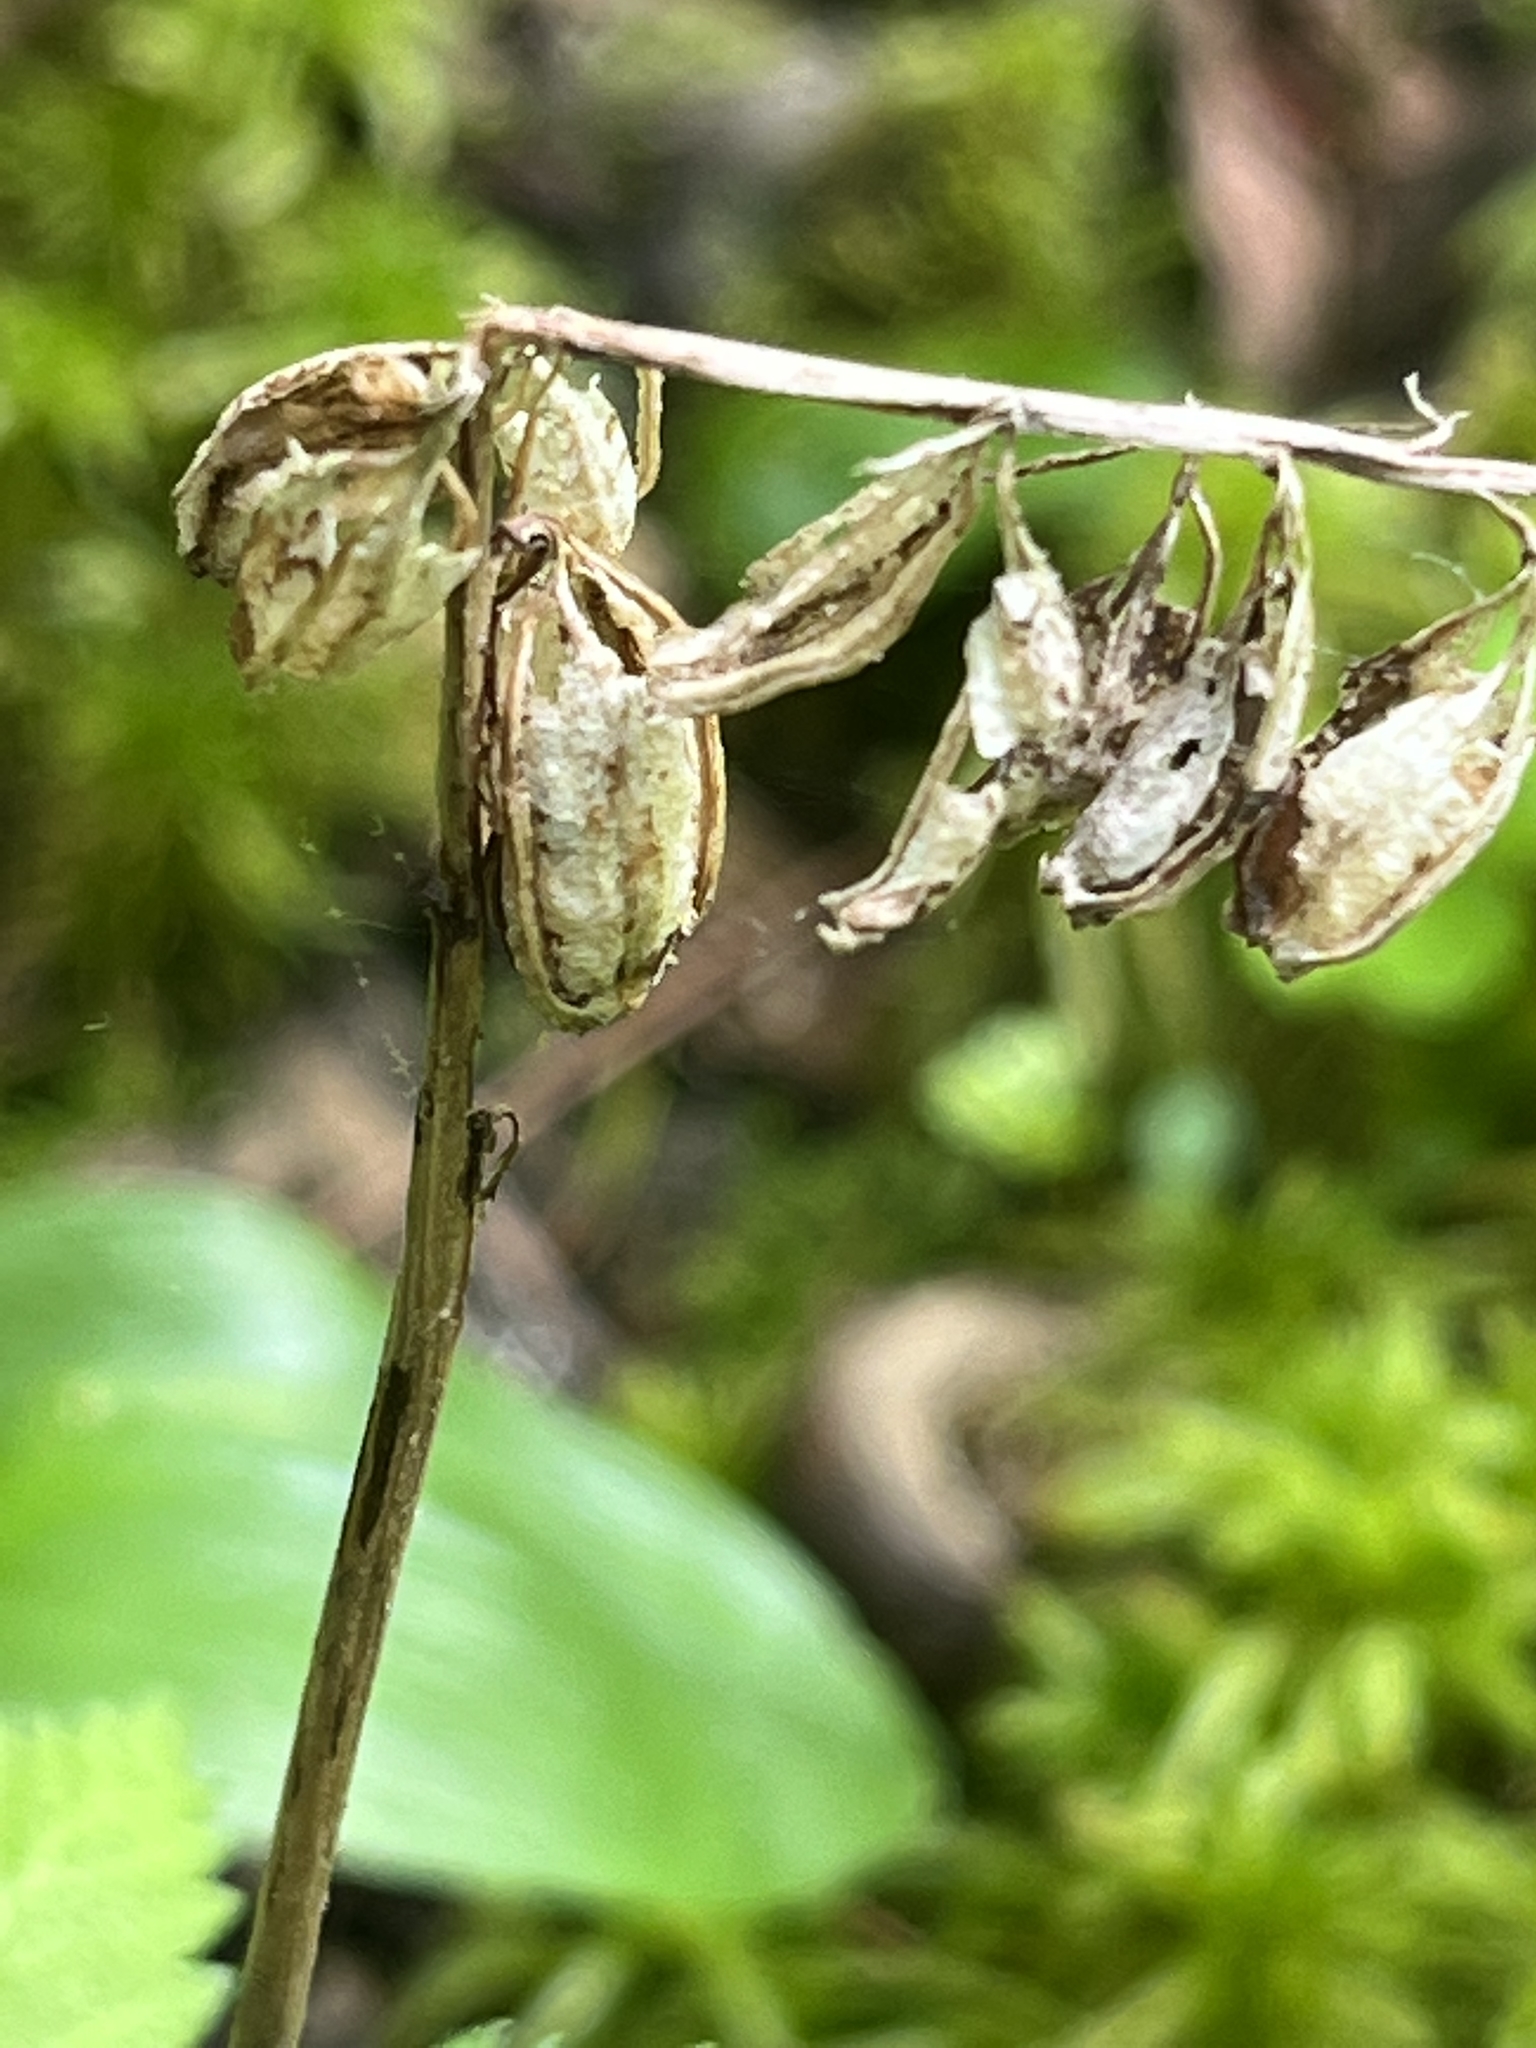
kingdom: Plantae
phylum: Tracheophyta
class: Liliopsida
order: Asparagales
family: Orchidaceae
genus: Corallorhiza
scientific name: Corallorhiza trifida
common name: Yellow coralroot
